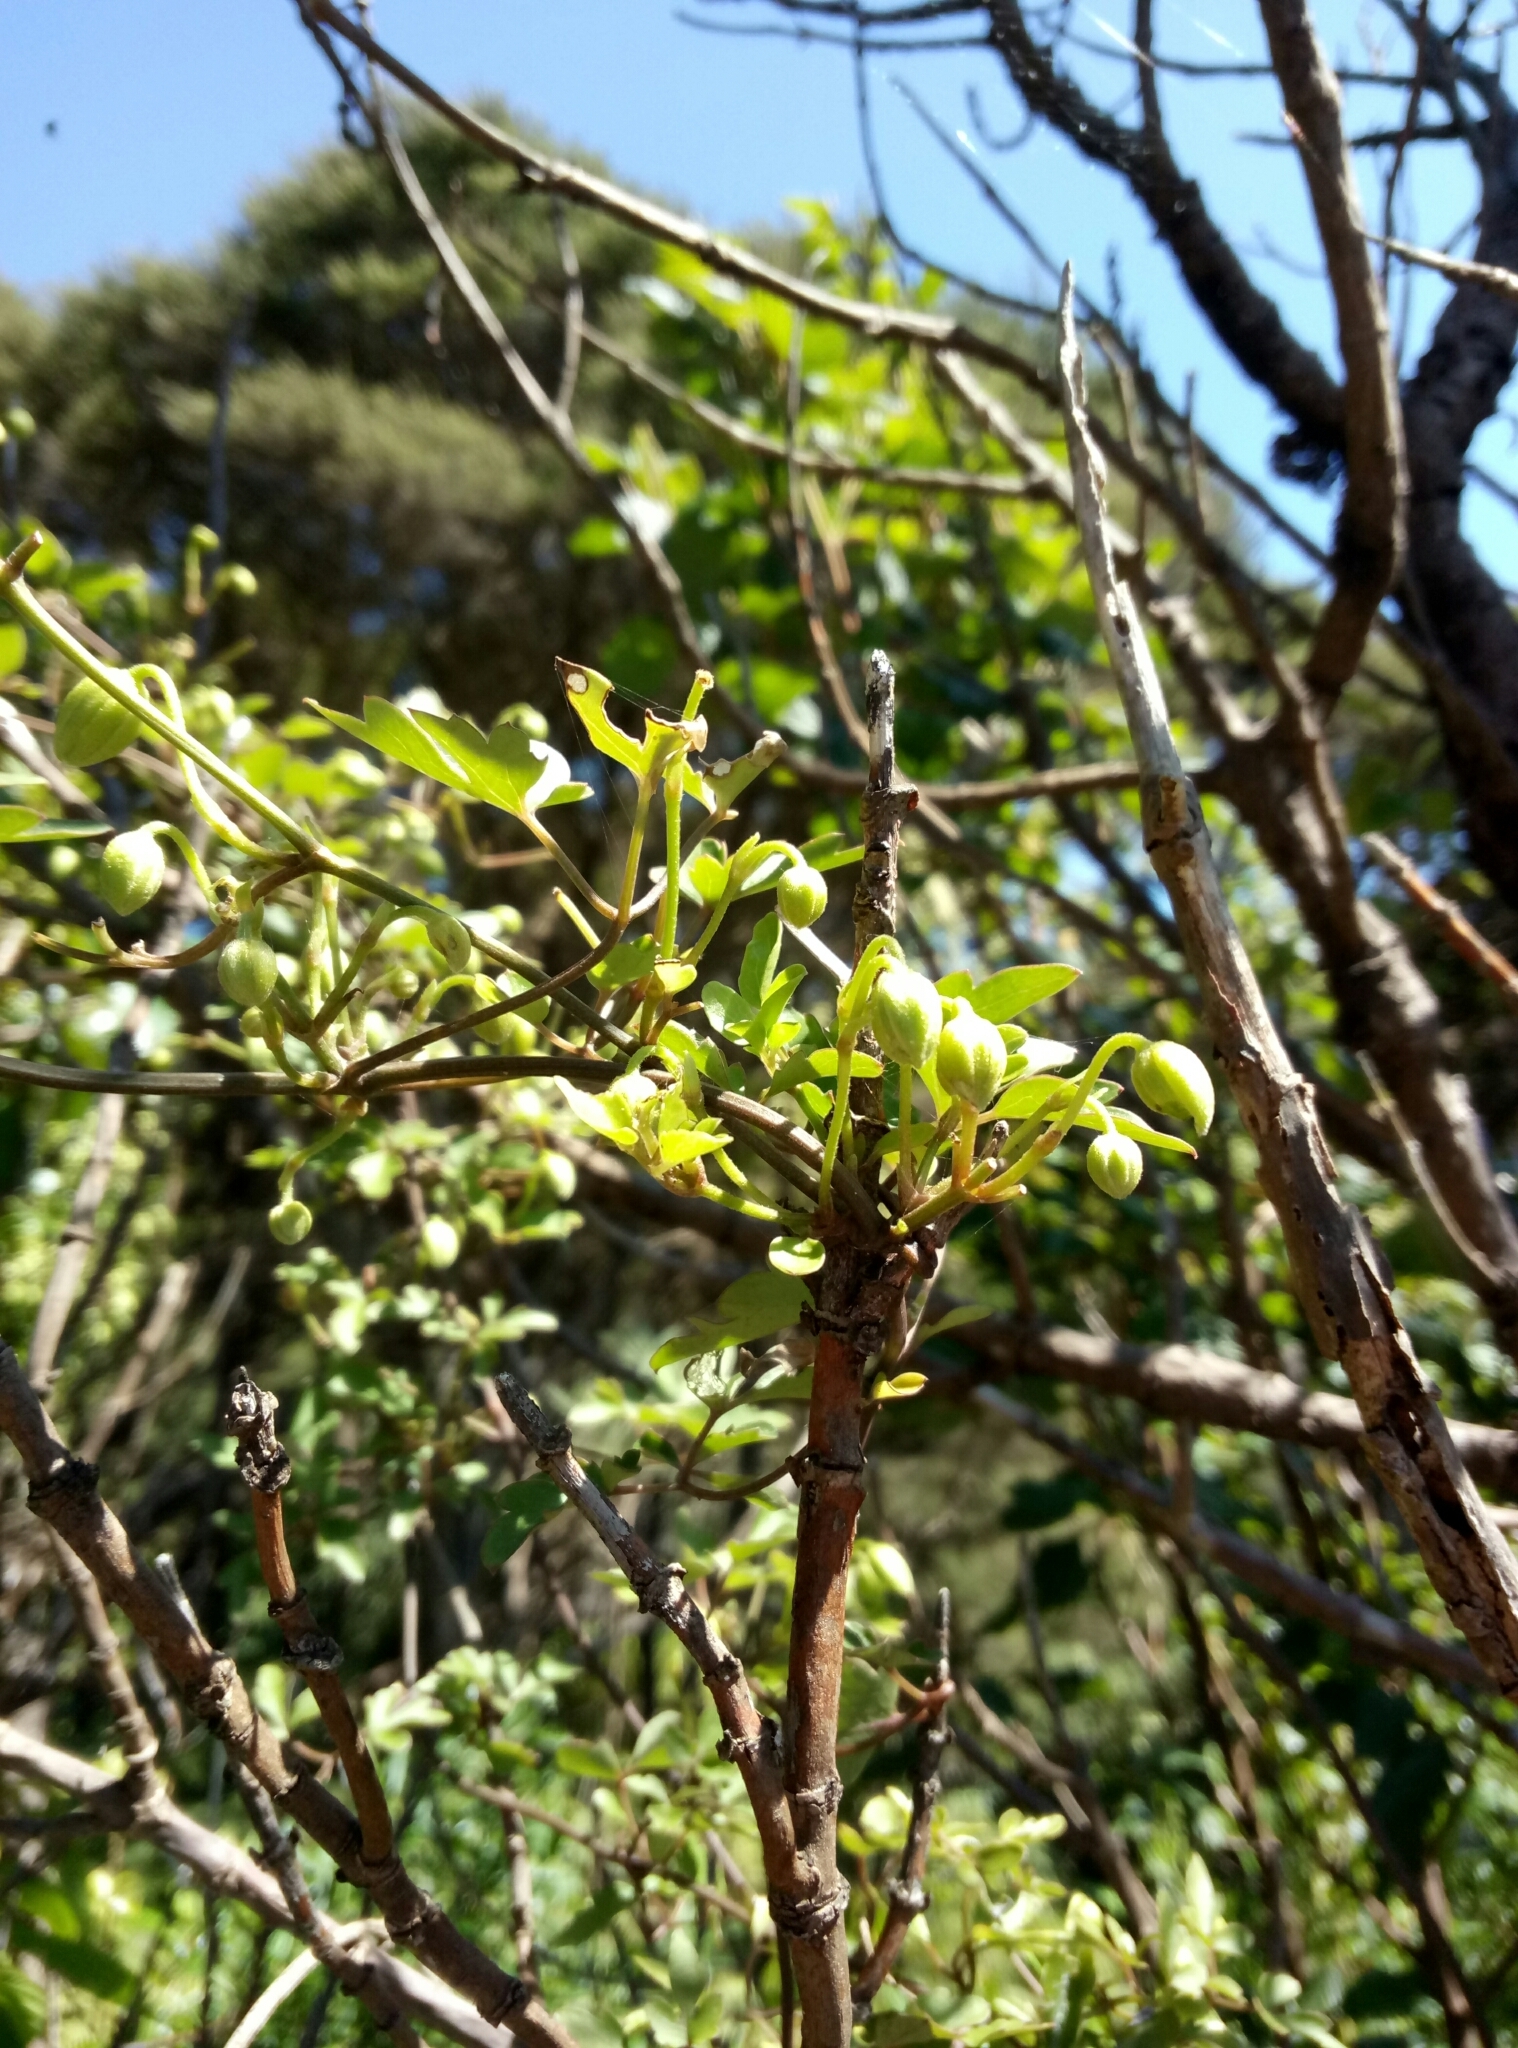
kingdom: Plantae
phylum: Tracheophyta
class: Magnoliopsida
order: Ranunculales
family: Ranunculaceae
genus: Clematis
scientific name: Clematis forsteri
